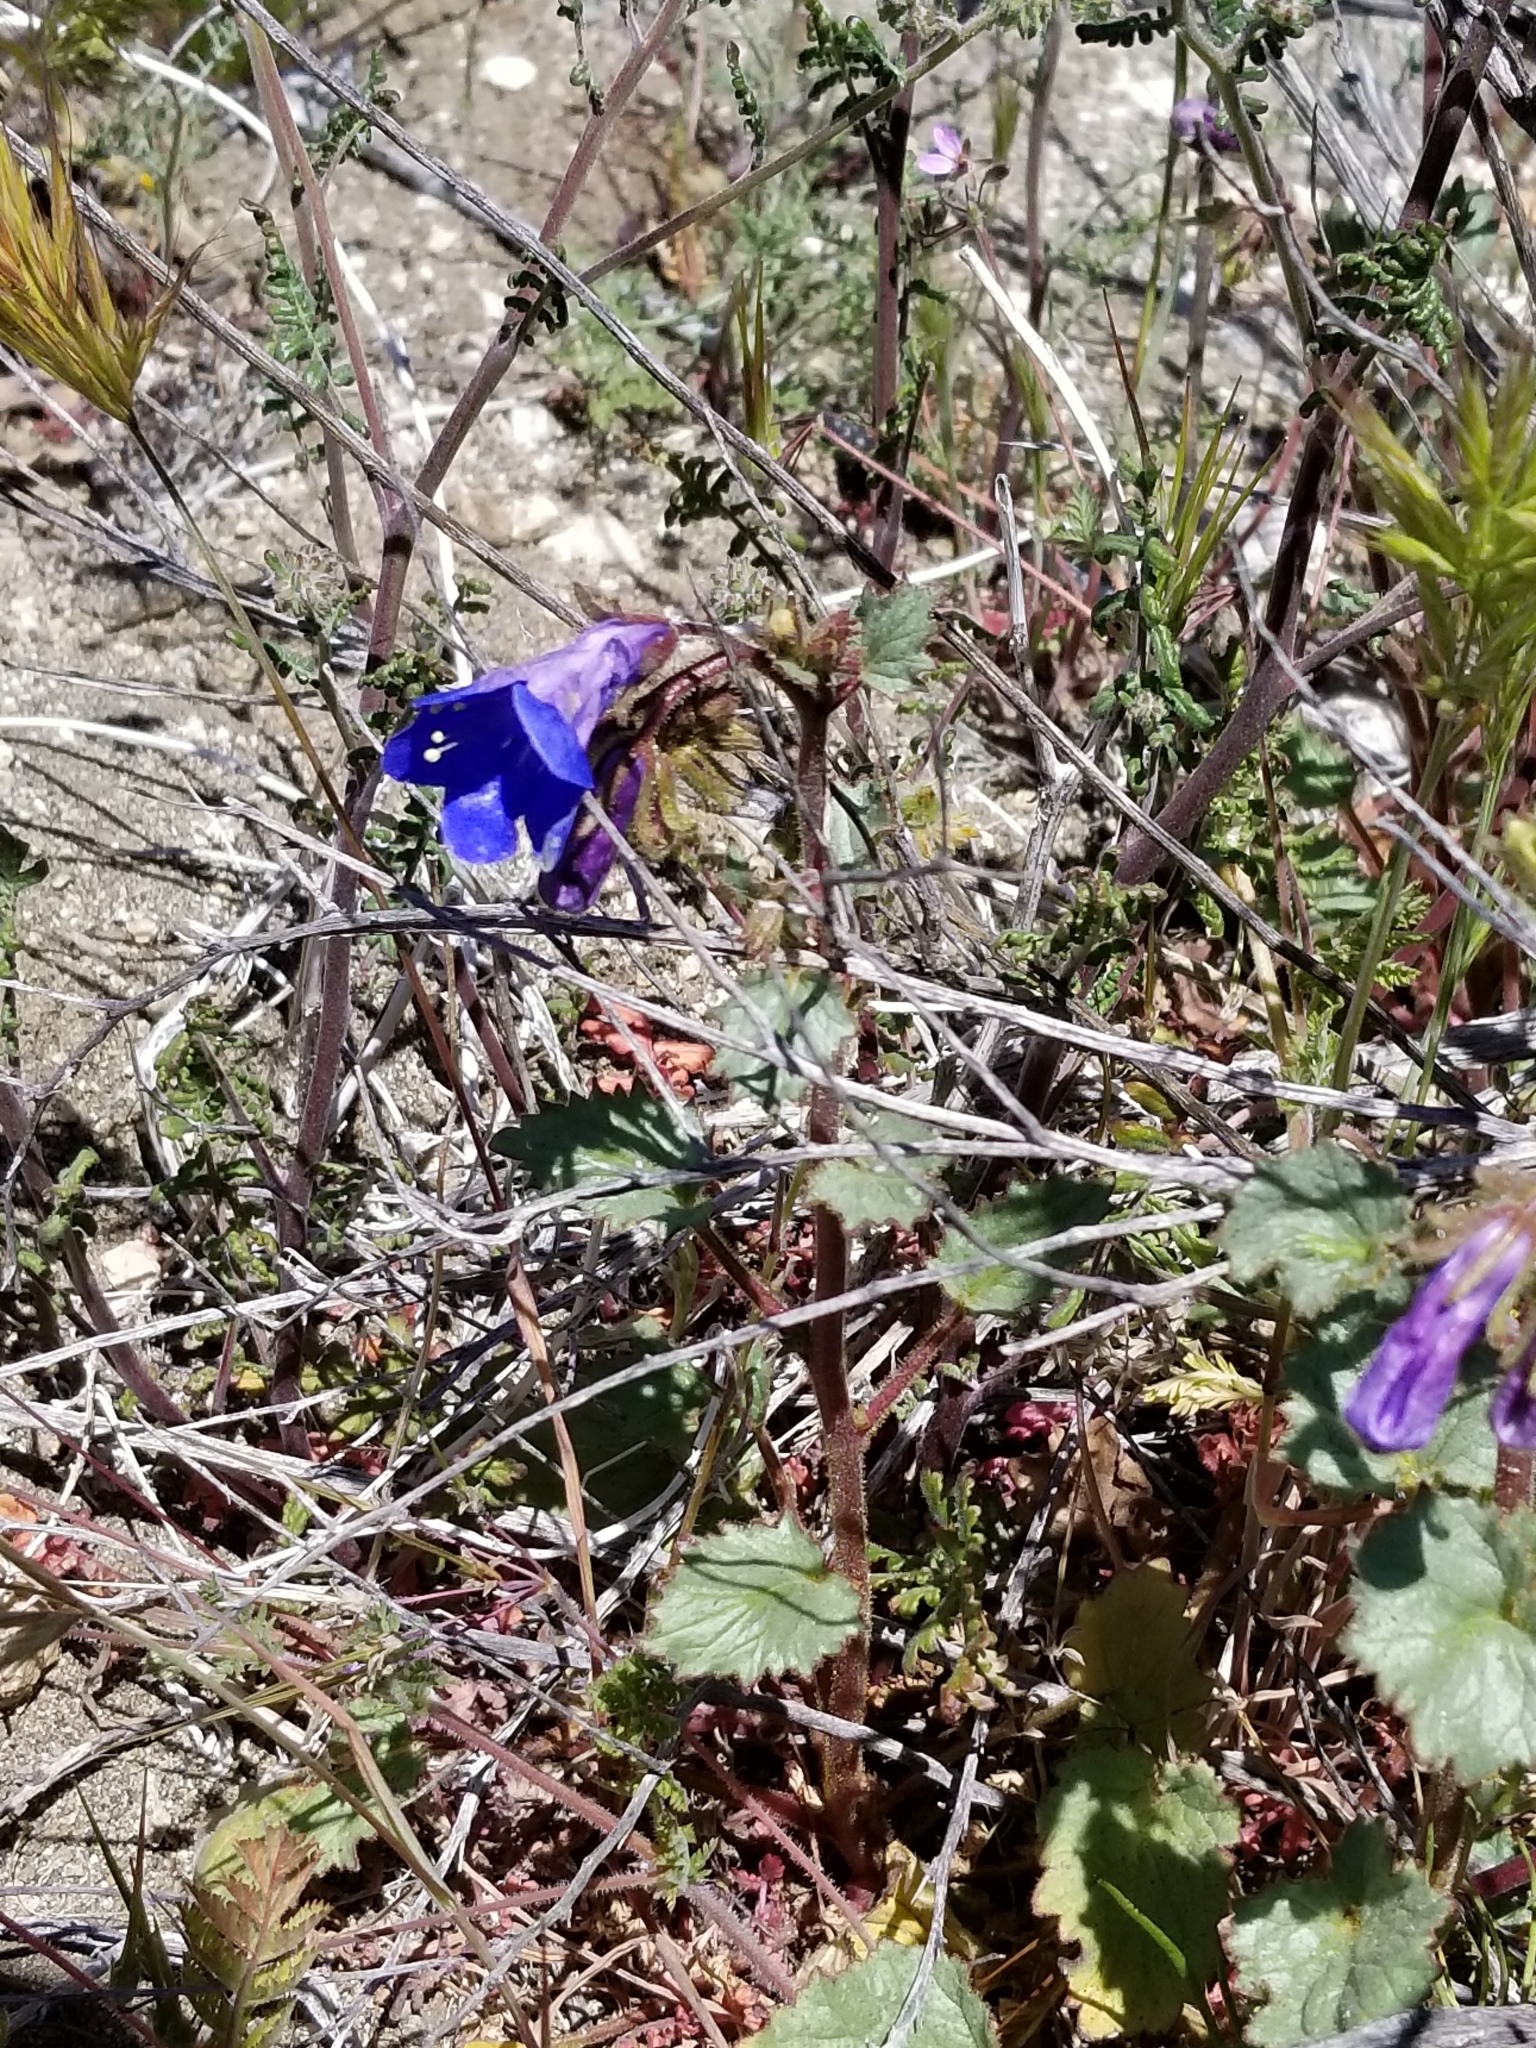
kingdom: Plantae
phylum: Tracheophyta
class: Magnoliopsida
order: Boraginales
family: Hydrophyllaceae
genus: Phacelia
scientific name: Phacelia campanularia
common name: California bluebell
